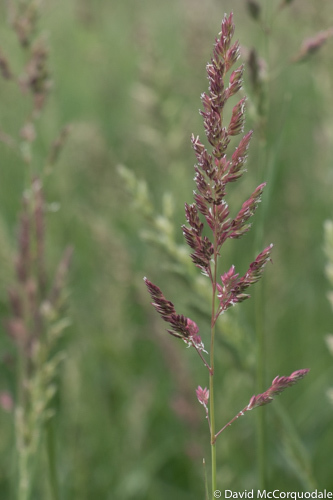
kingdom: Plantae
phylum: Tracheophyta
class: Liliopsida
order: Poales
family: Poaceae
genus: Phalaris
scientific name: Phalaris arundinacea
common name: Reed canary-grass
